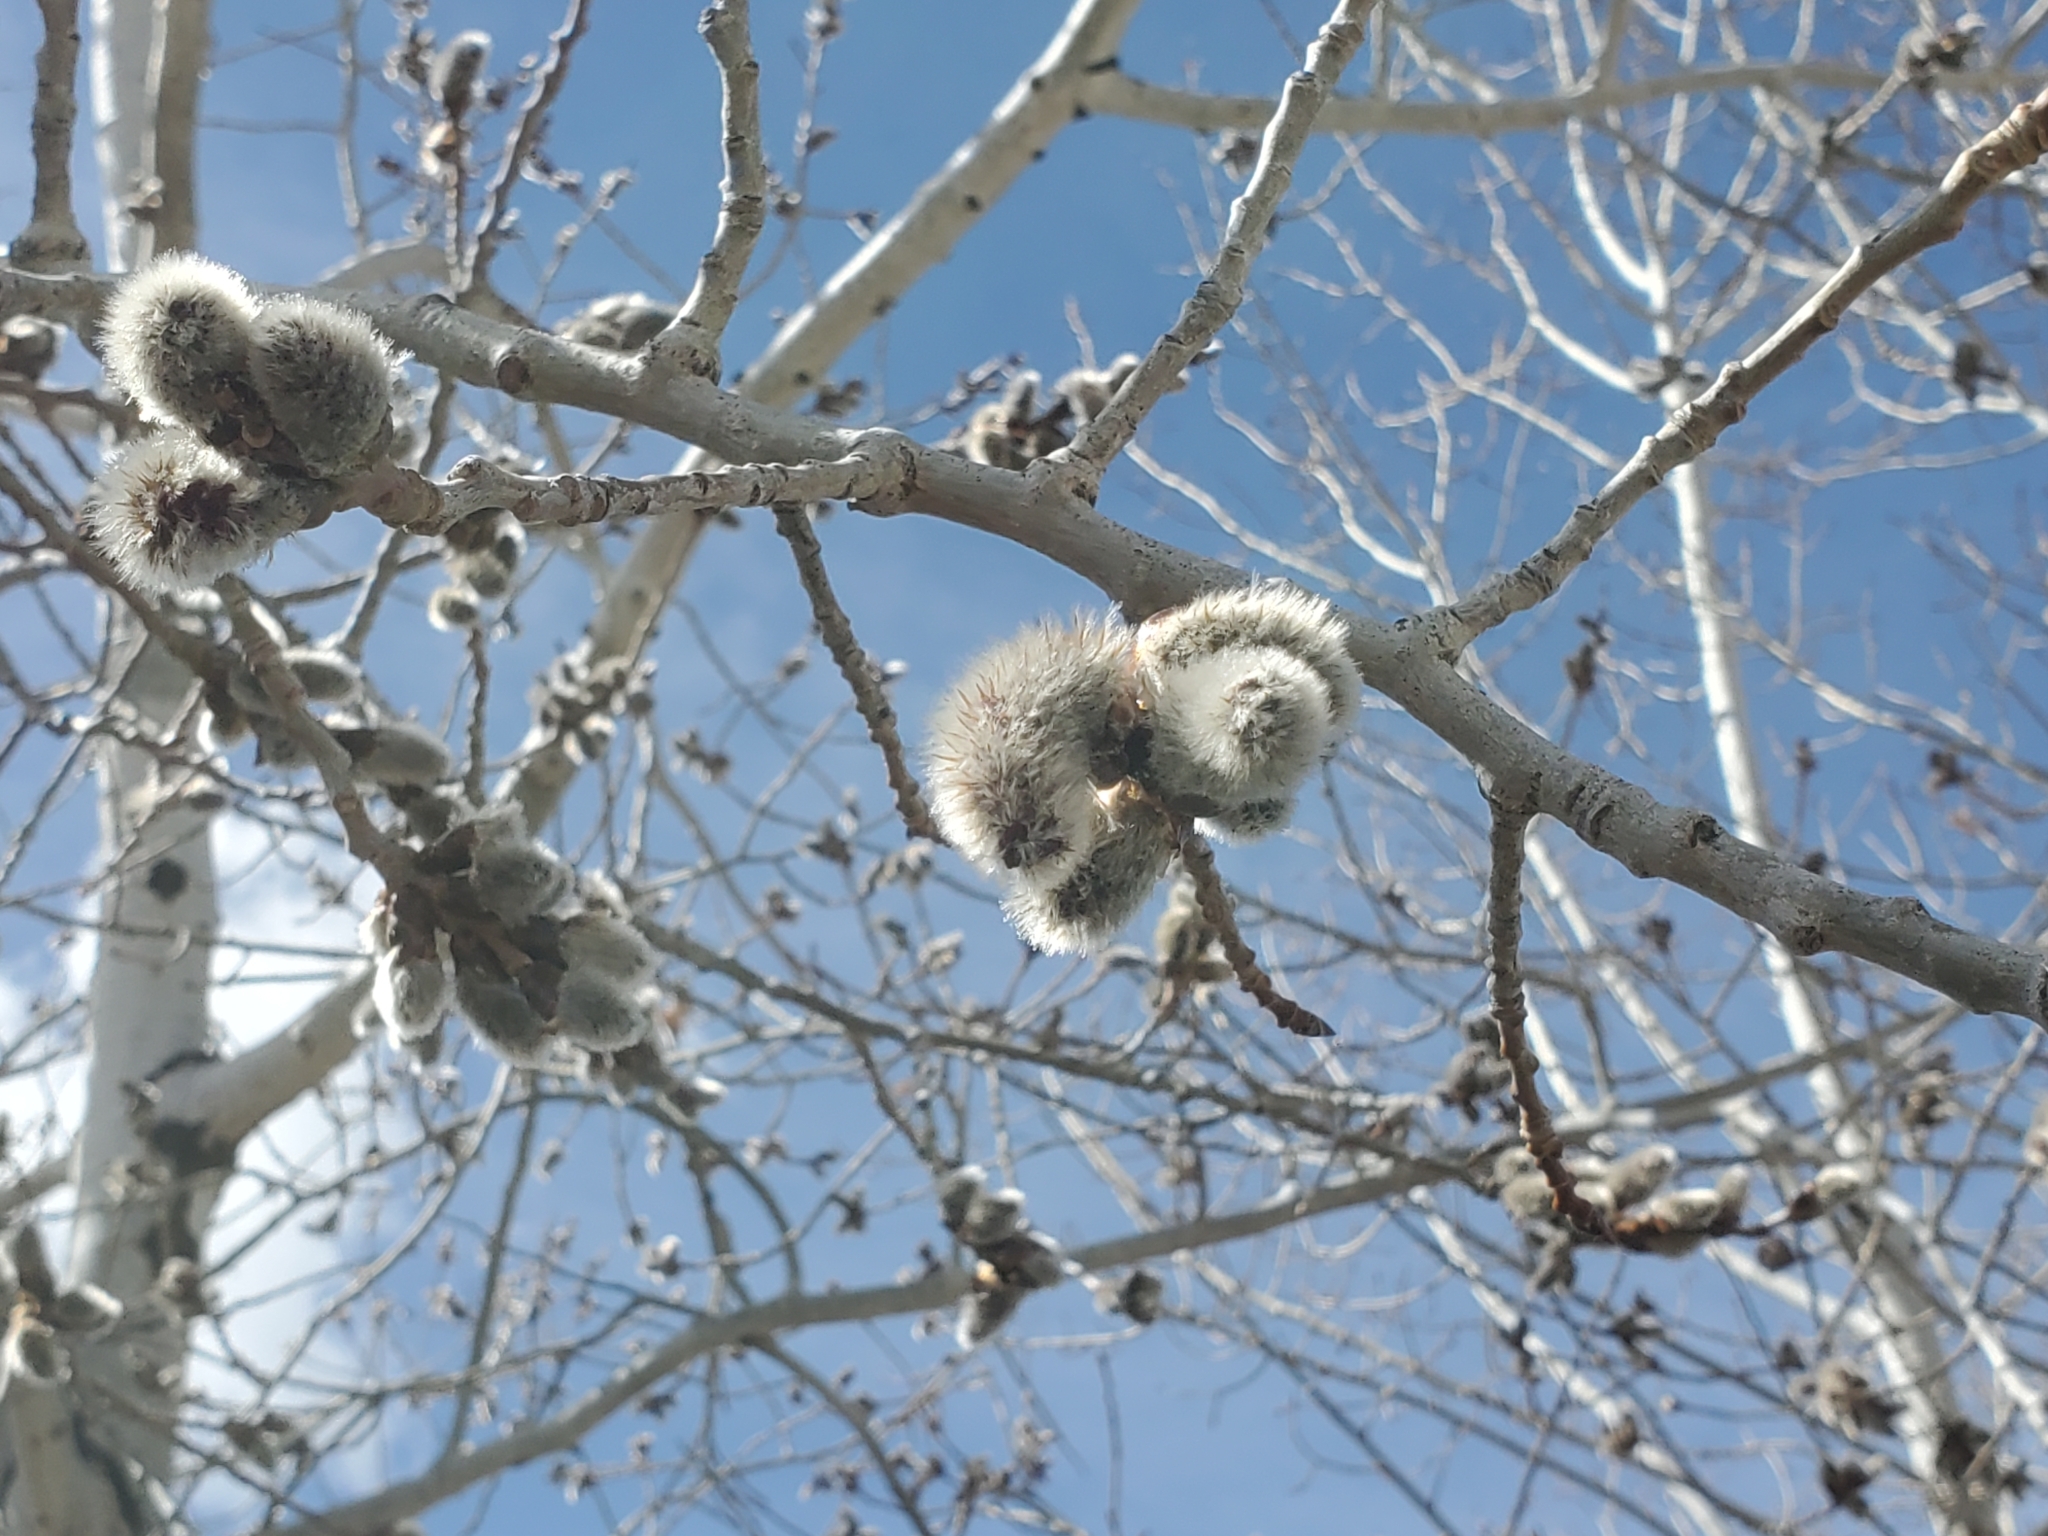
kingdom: Plantae
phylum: Tracheophyta
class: Magnoliopsida
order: Malpighiales
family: Salicaceae
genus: Populus
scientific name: Populus tremuloides
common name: Quaking aspen
